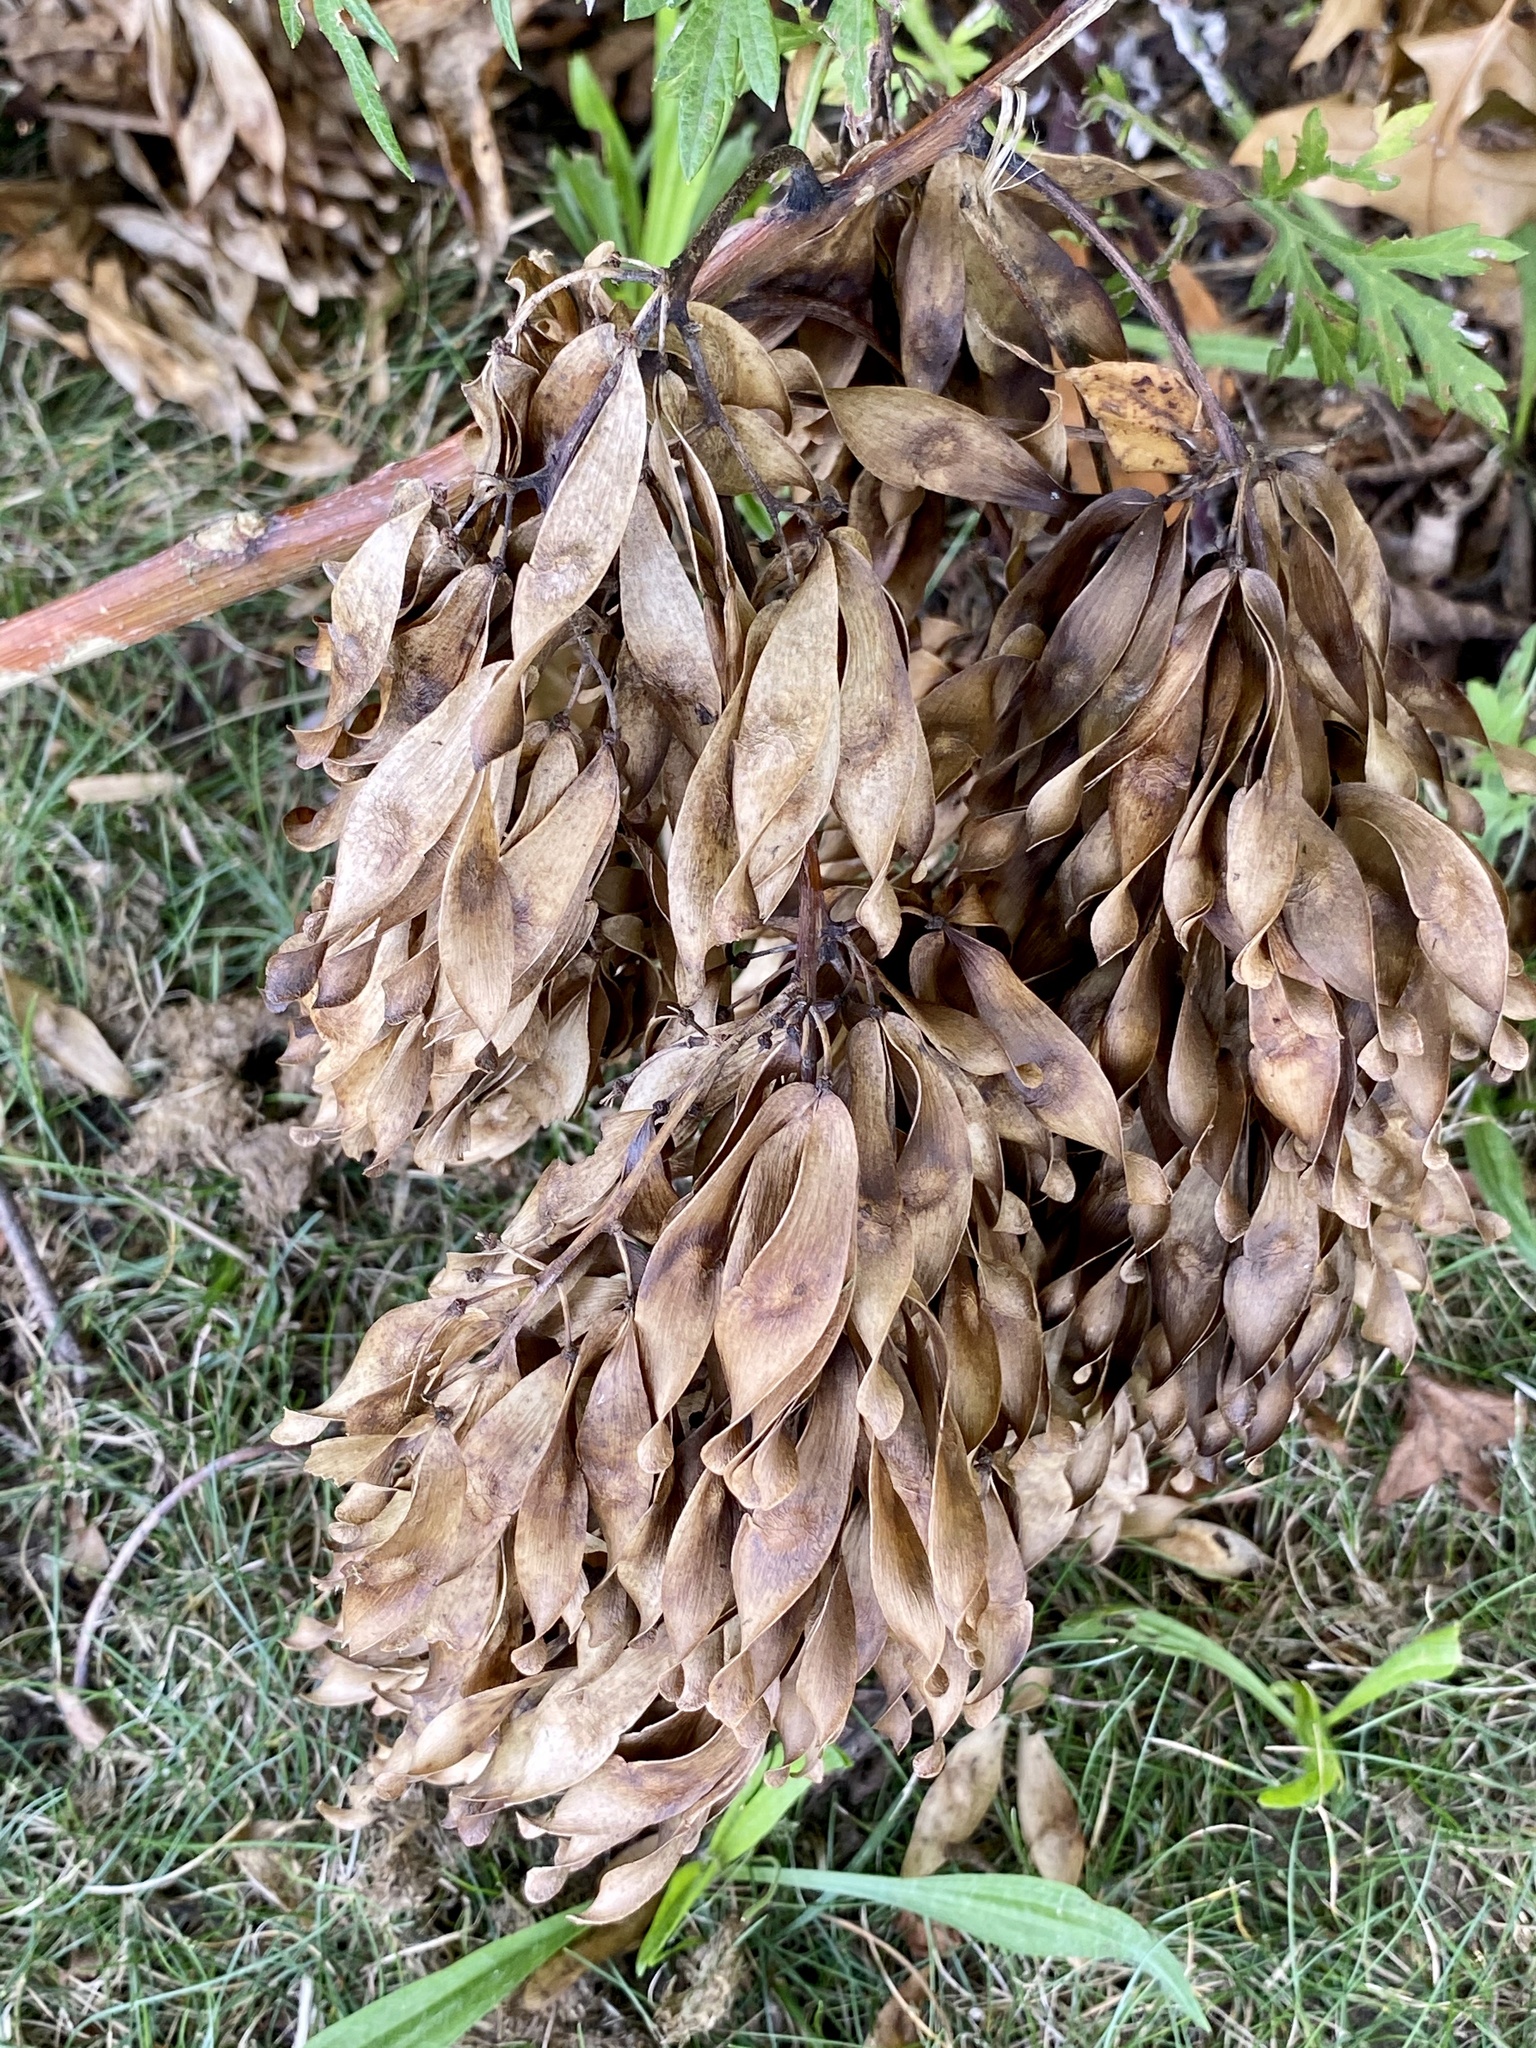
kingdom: Plantae
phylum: Tracheophyta
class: Magnoliopsida
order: Sapindales
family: Simaroubaceae
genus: Ailanthus
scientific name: Ailanthus altissima
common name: Tree-of-heaven
